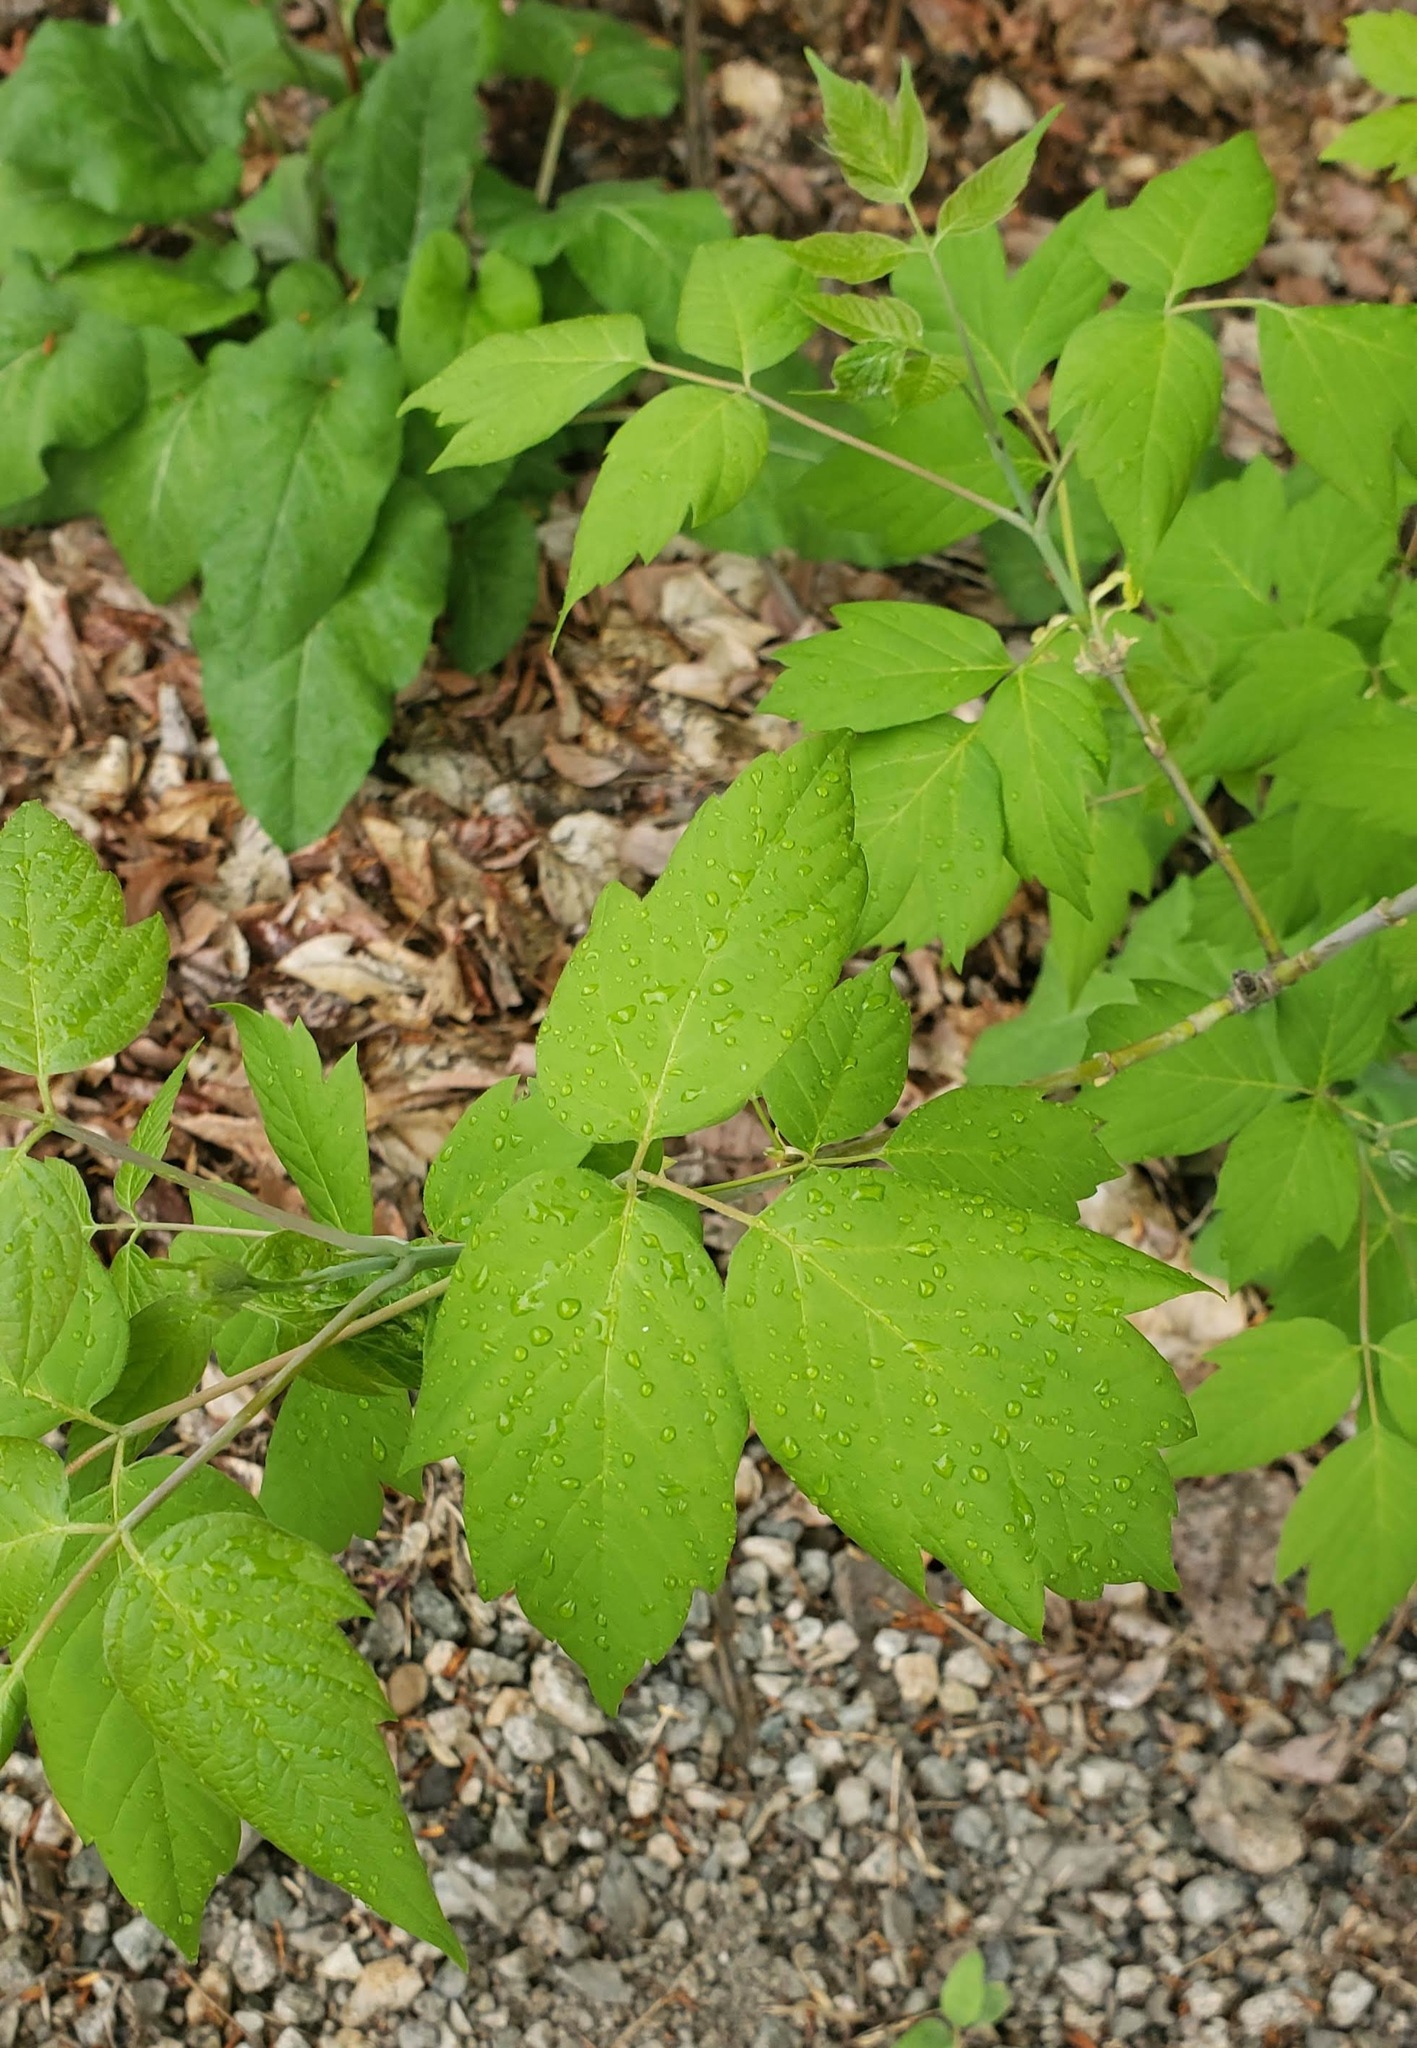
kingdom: Plantae
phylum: Tracheophyta
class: Magnoliopsida
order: Sapindales
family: Sapindaceae
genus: Acer
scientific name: Acer negundo
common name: Ashleaf maple
